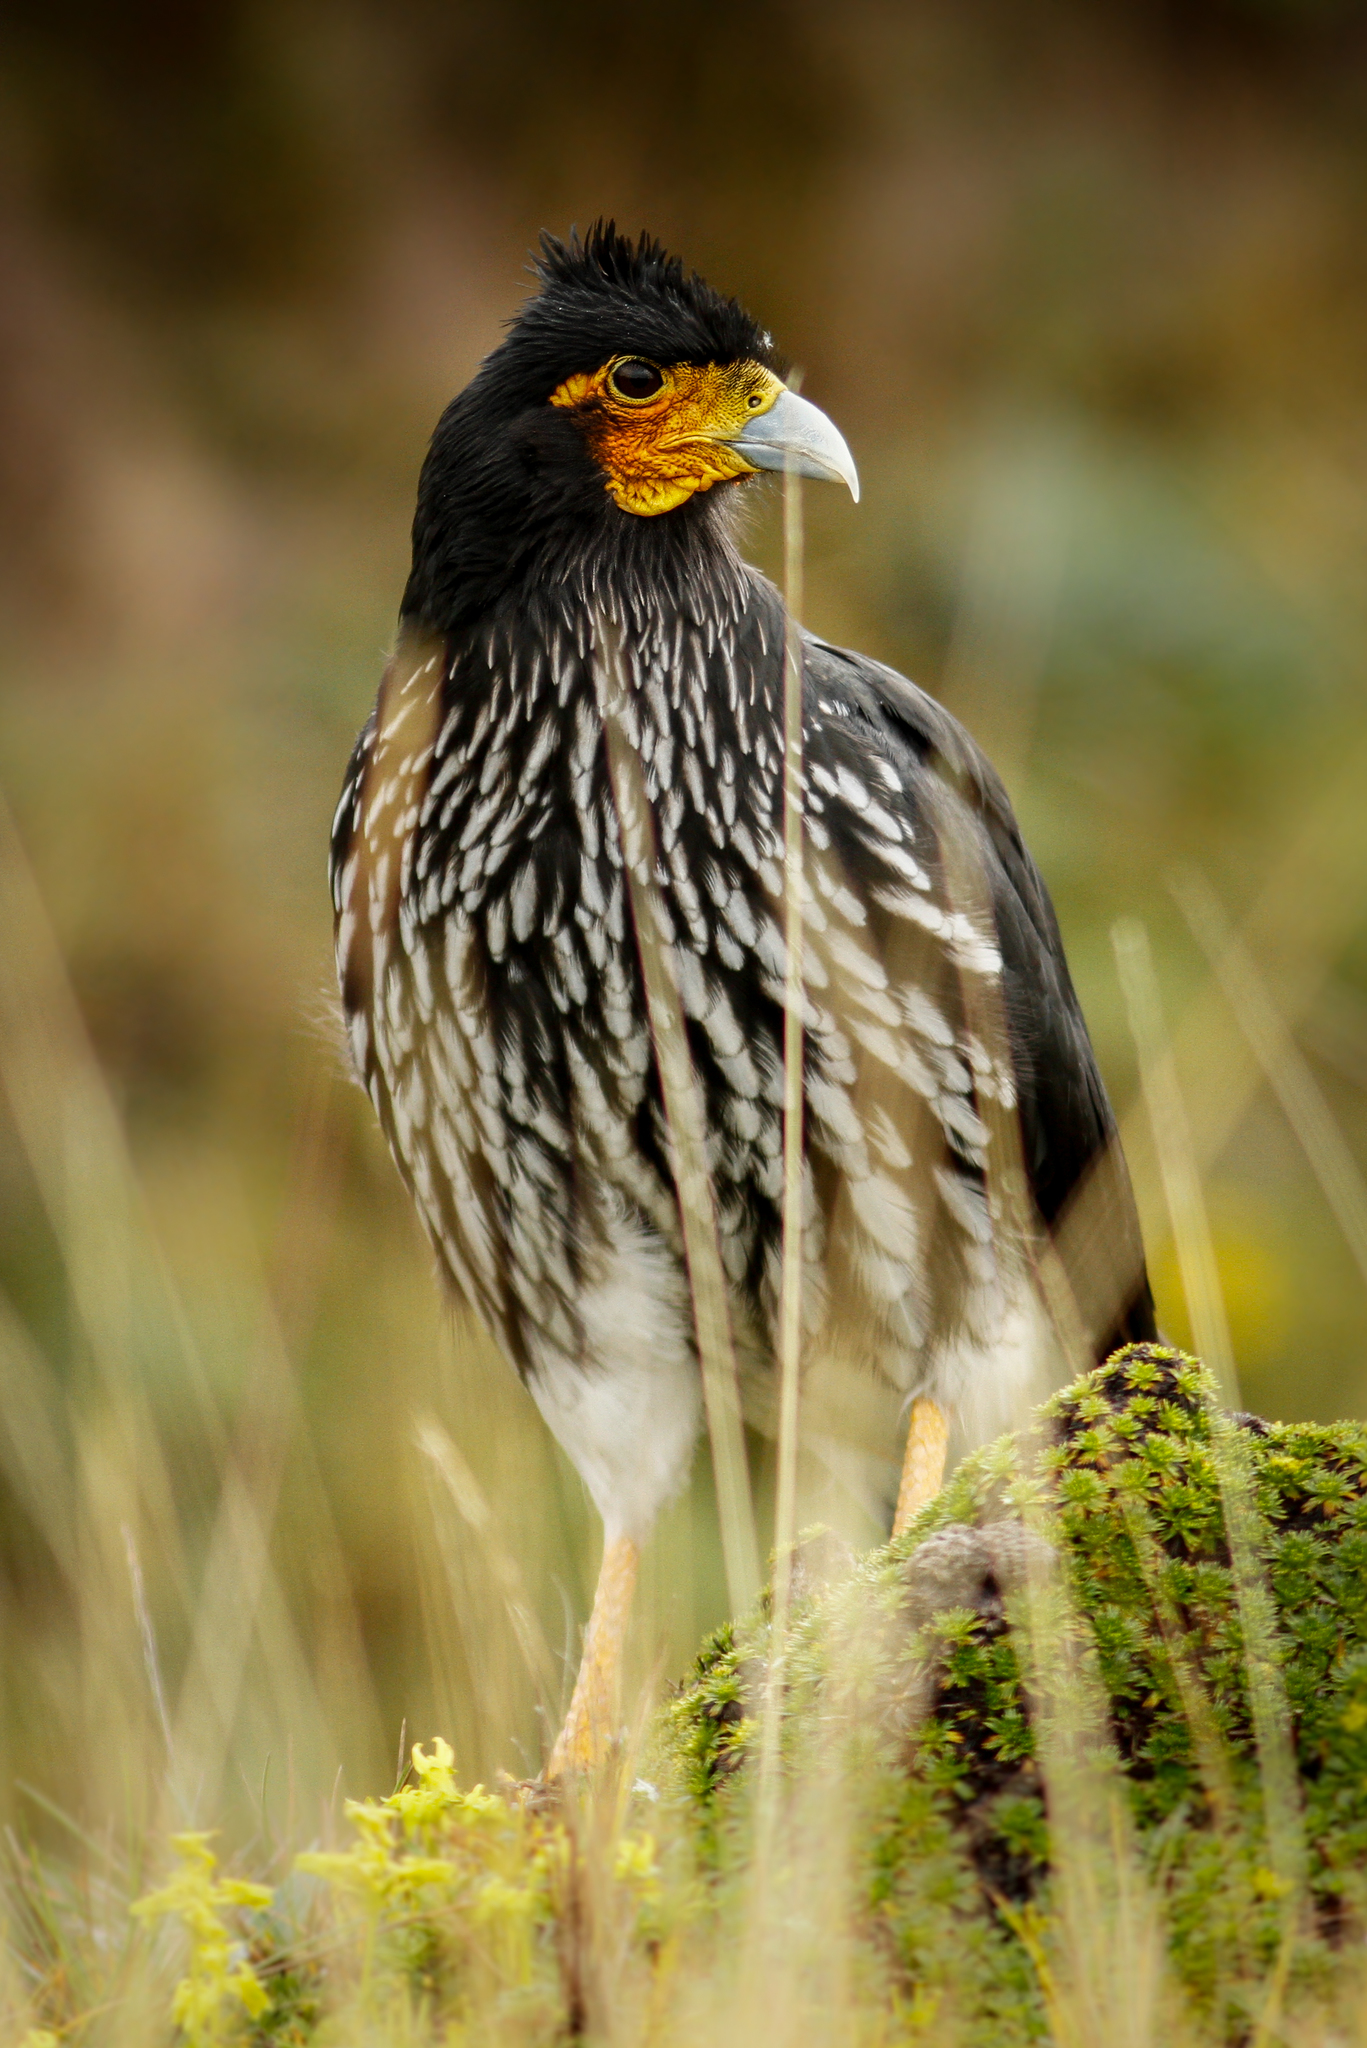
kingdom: Animalia
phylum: Chordata
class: Aves
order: Falconiformes
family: Falconidae
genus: Daptrius
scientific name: Daptrius
